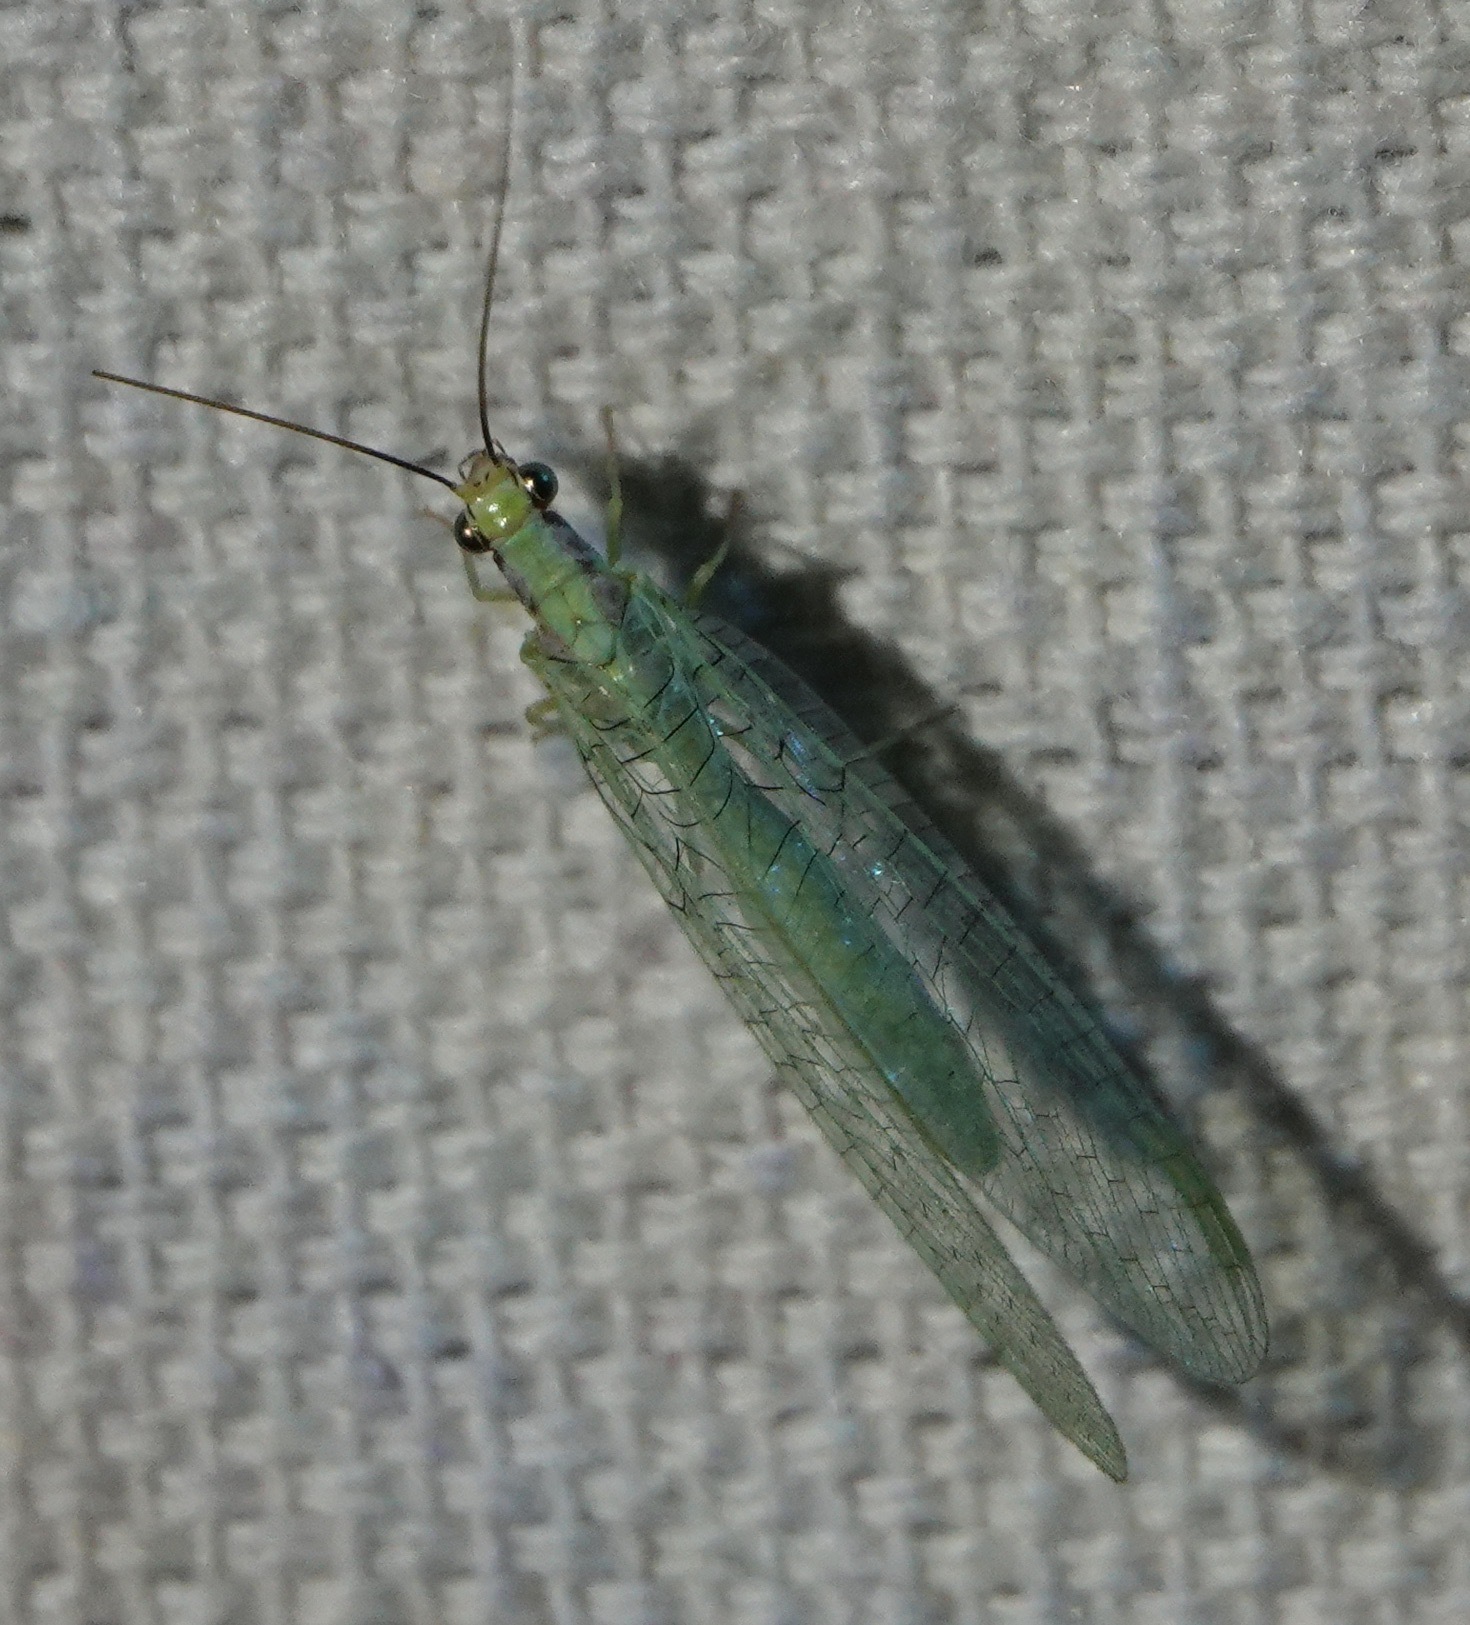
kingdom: Animalia
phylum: Arthropoda
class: Insecta
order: Neuroptera
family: Chrysopidae
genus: Chrysopa
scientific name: Chrysopa coloradensis
